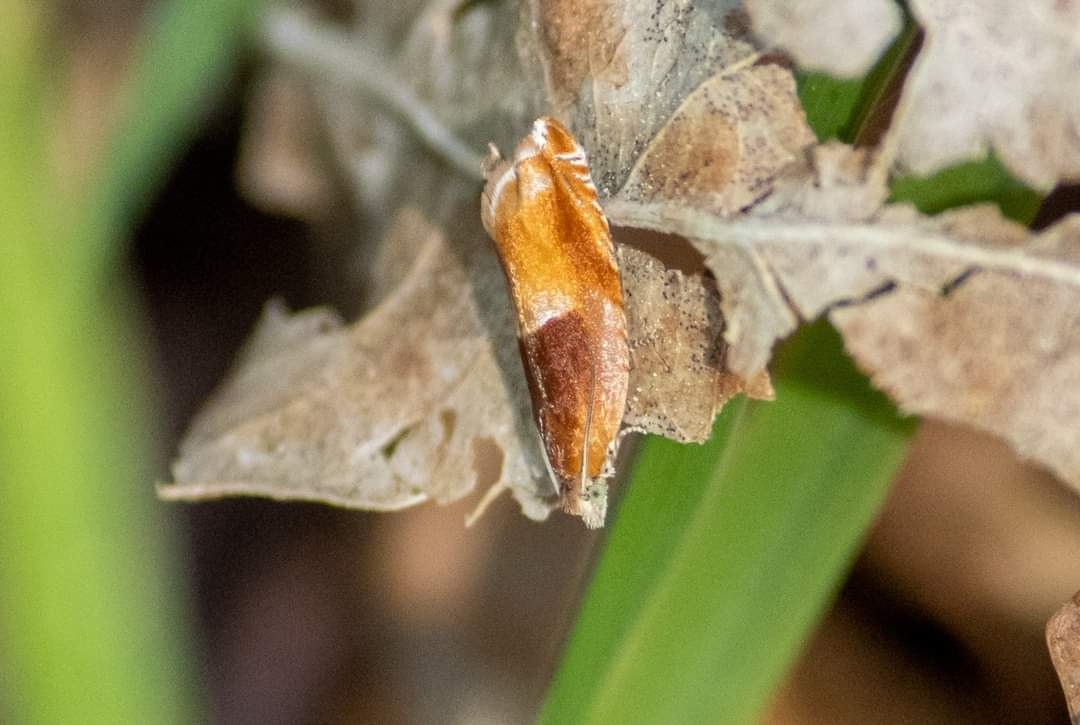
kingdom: Animalia
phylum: Arthropoda
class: Insecta
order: Lepidoptera
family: Tortricidae
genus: Ancylis
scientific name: Ancylis mitterbacheriana
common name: Red roller
